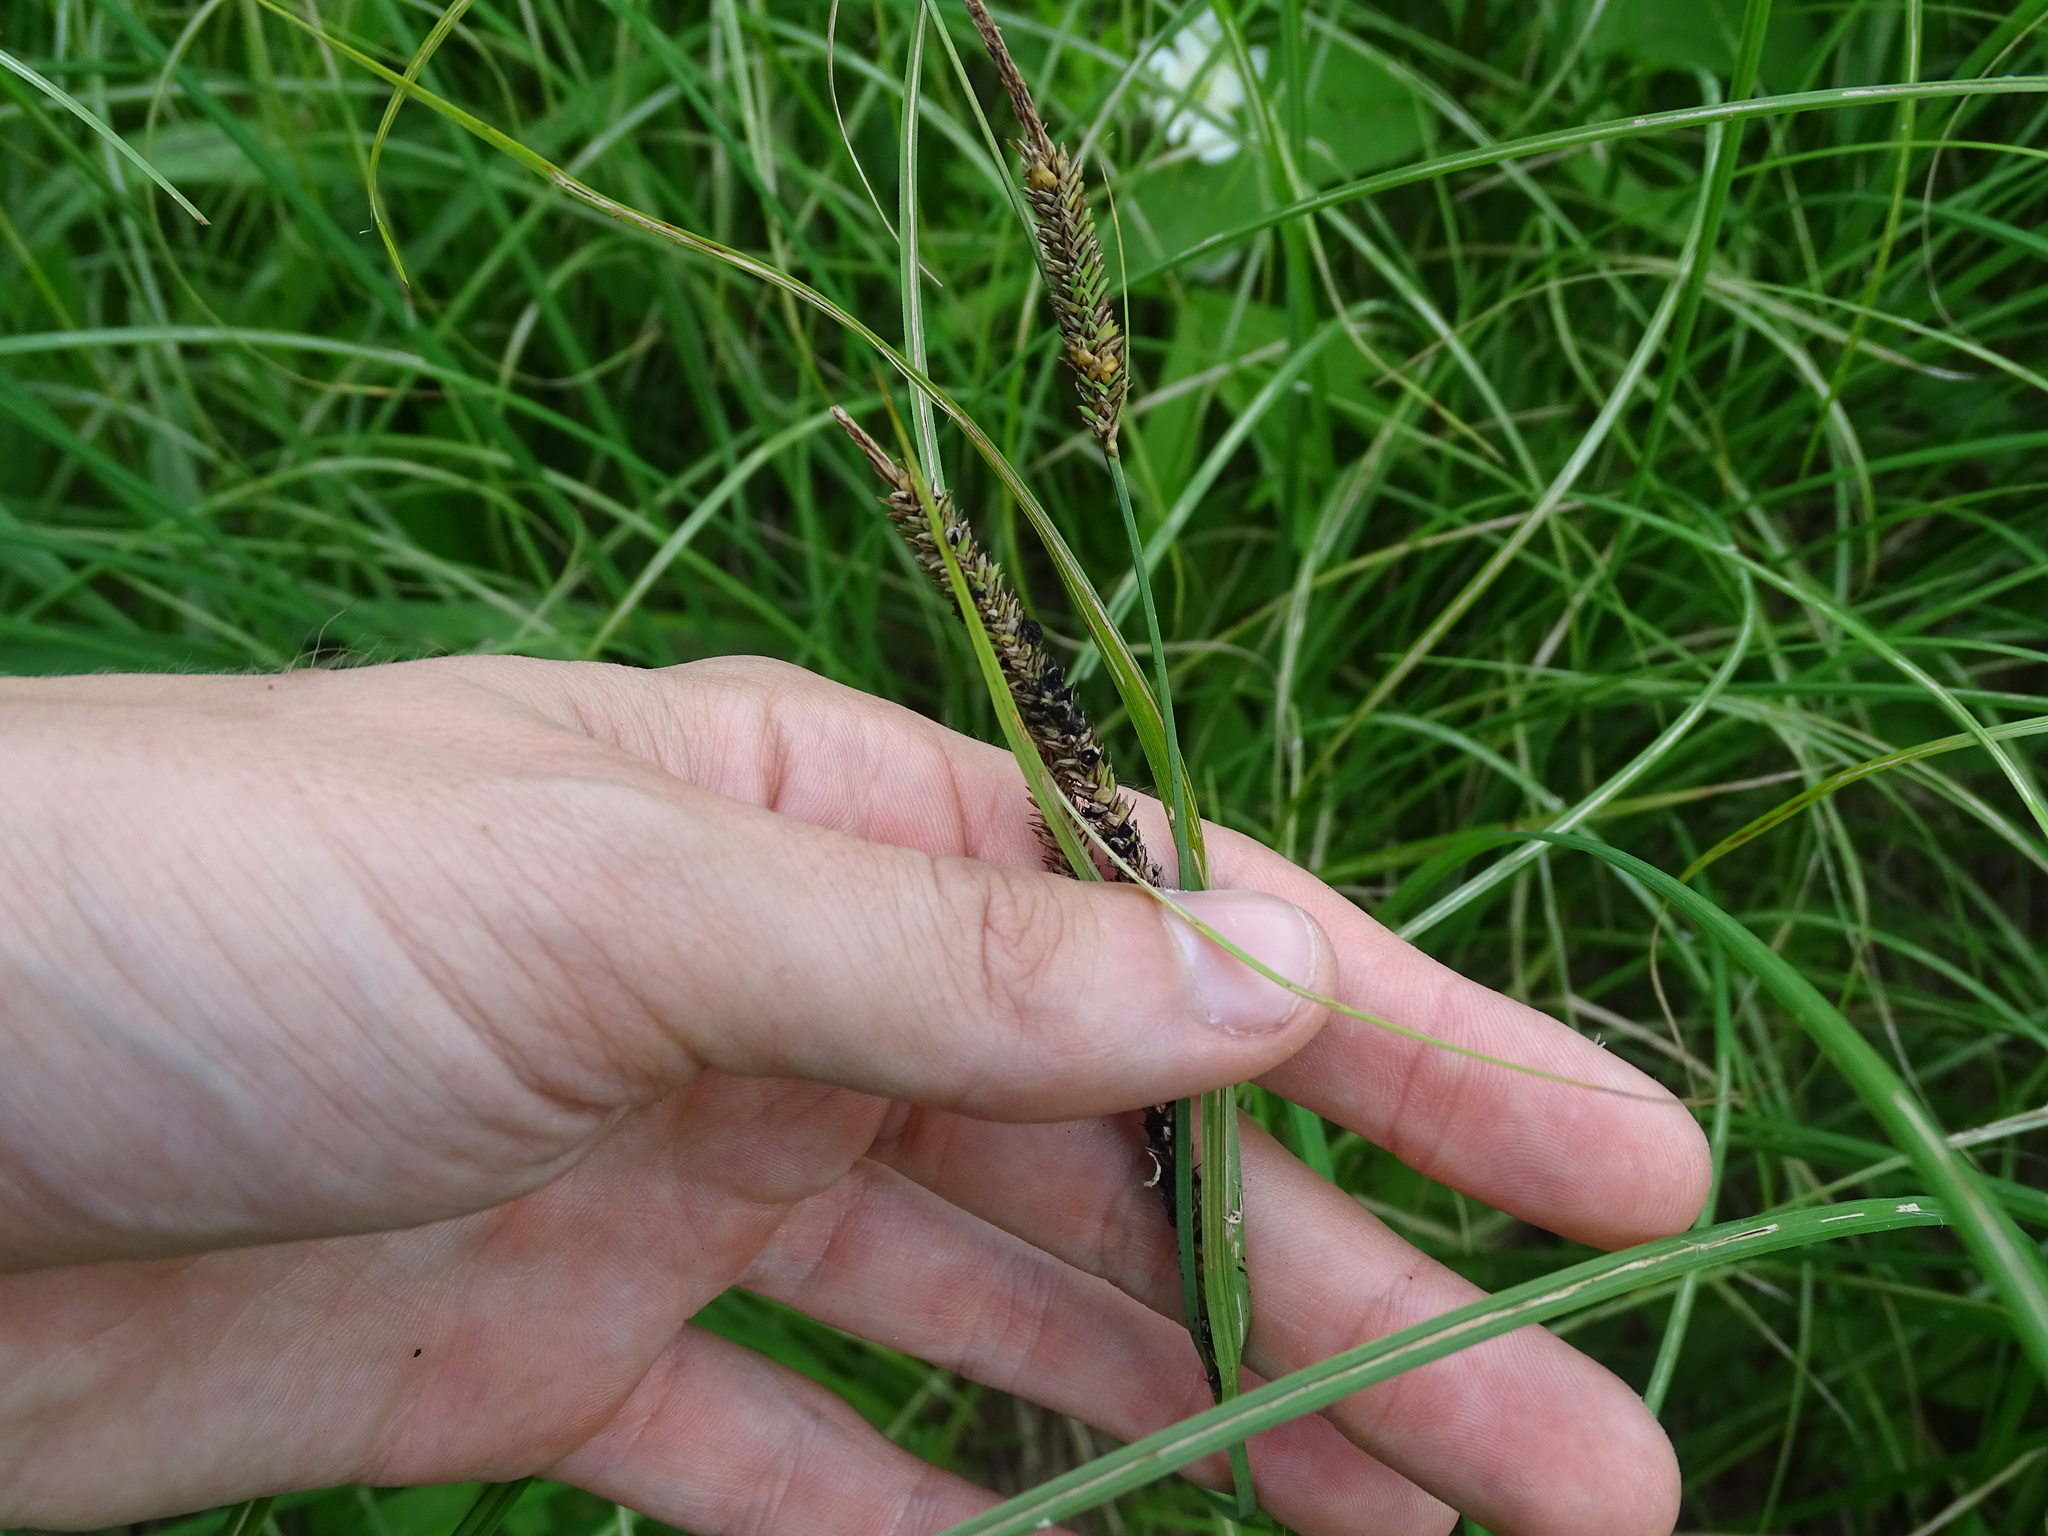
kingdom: Plantae
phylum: Tracheophyta
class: Liliopsida
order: Poales
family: Cyperaceae
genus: Carex
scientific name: Carex stricta
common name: Hummock sedge
